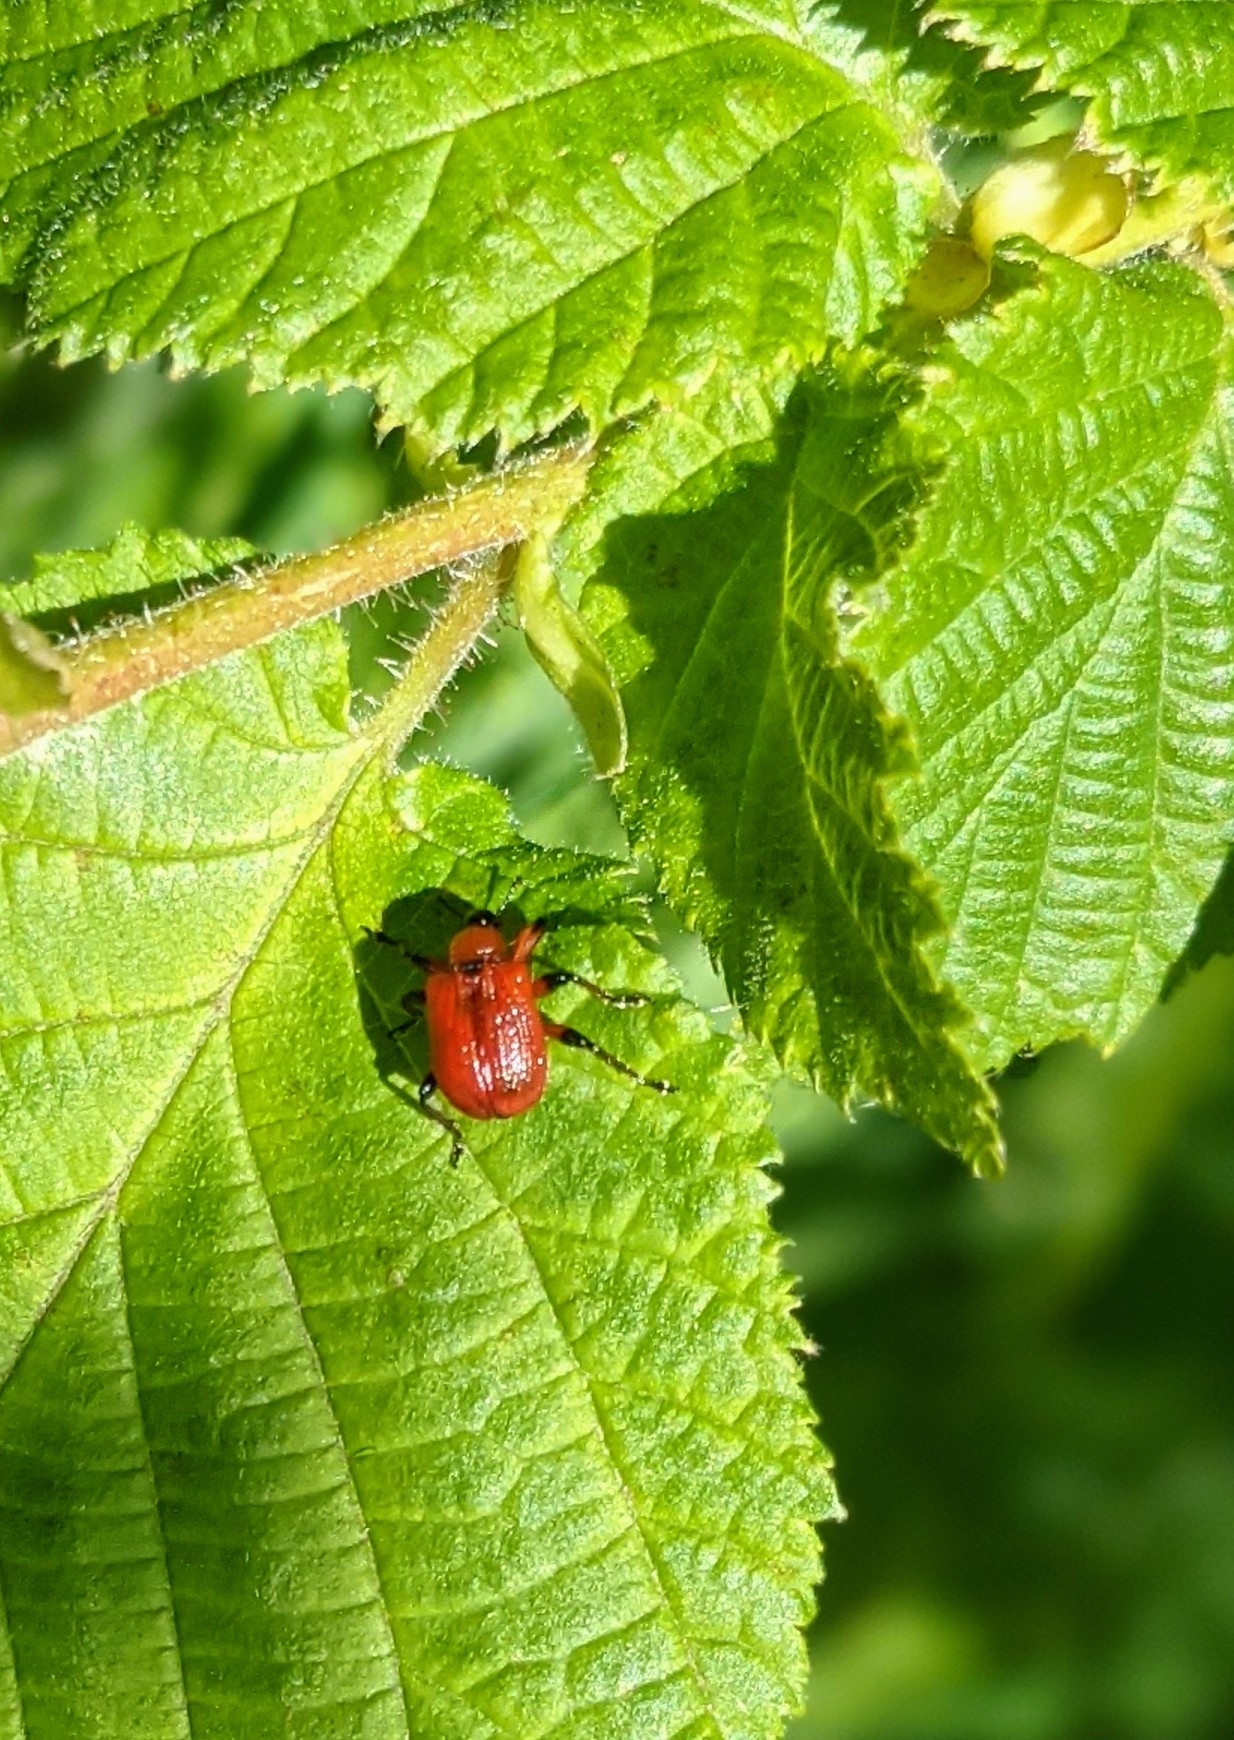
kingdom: Animalia
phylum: Arthropoda
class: Insecta
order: Coleoptera
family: Attelabidae
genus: Apoderus
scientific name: Apoderus coryli
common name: Hazel leaf roller
